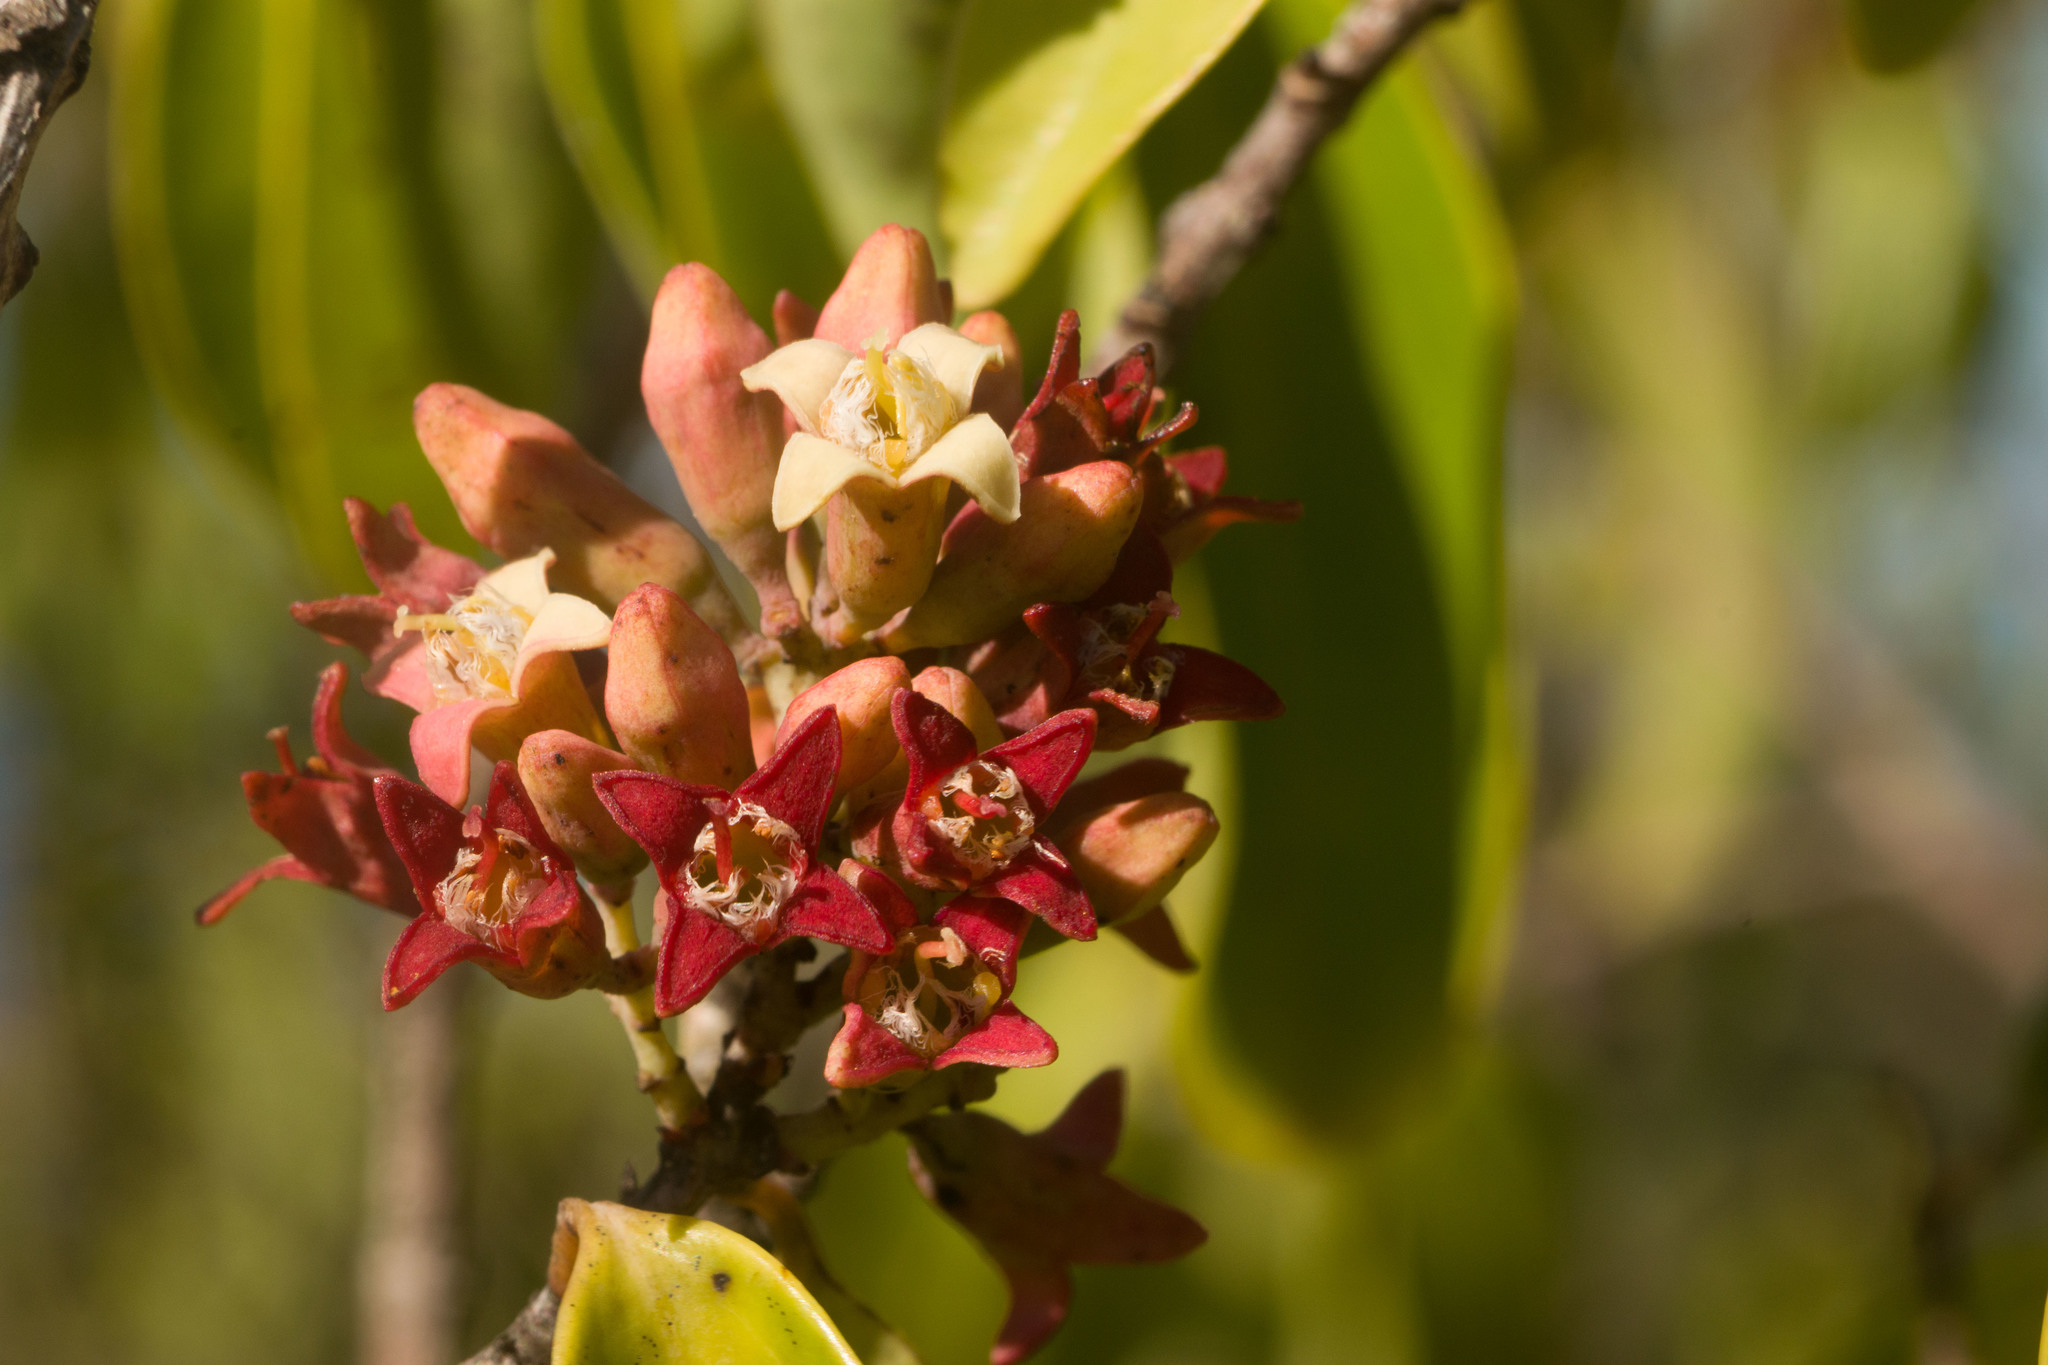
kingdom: Plantae
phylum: Tracheophyta
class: Magnoliopsida
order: Santalales
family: Santalaceae
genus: Santalum
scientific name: Santalum freycinetianum
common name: Lanai sandalwood
